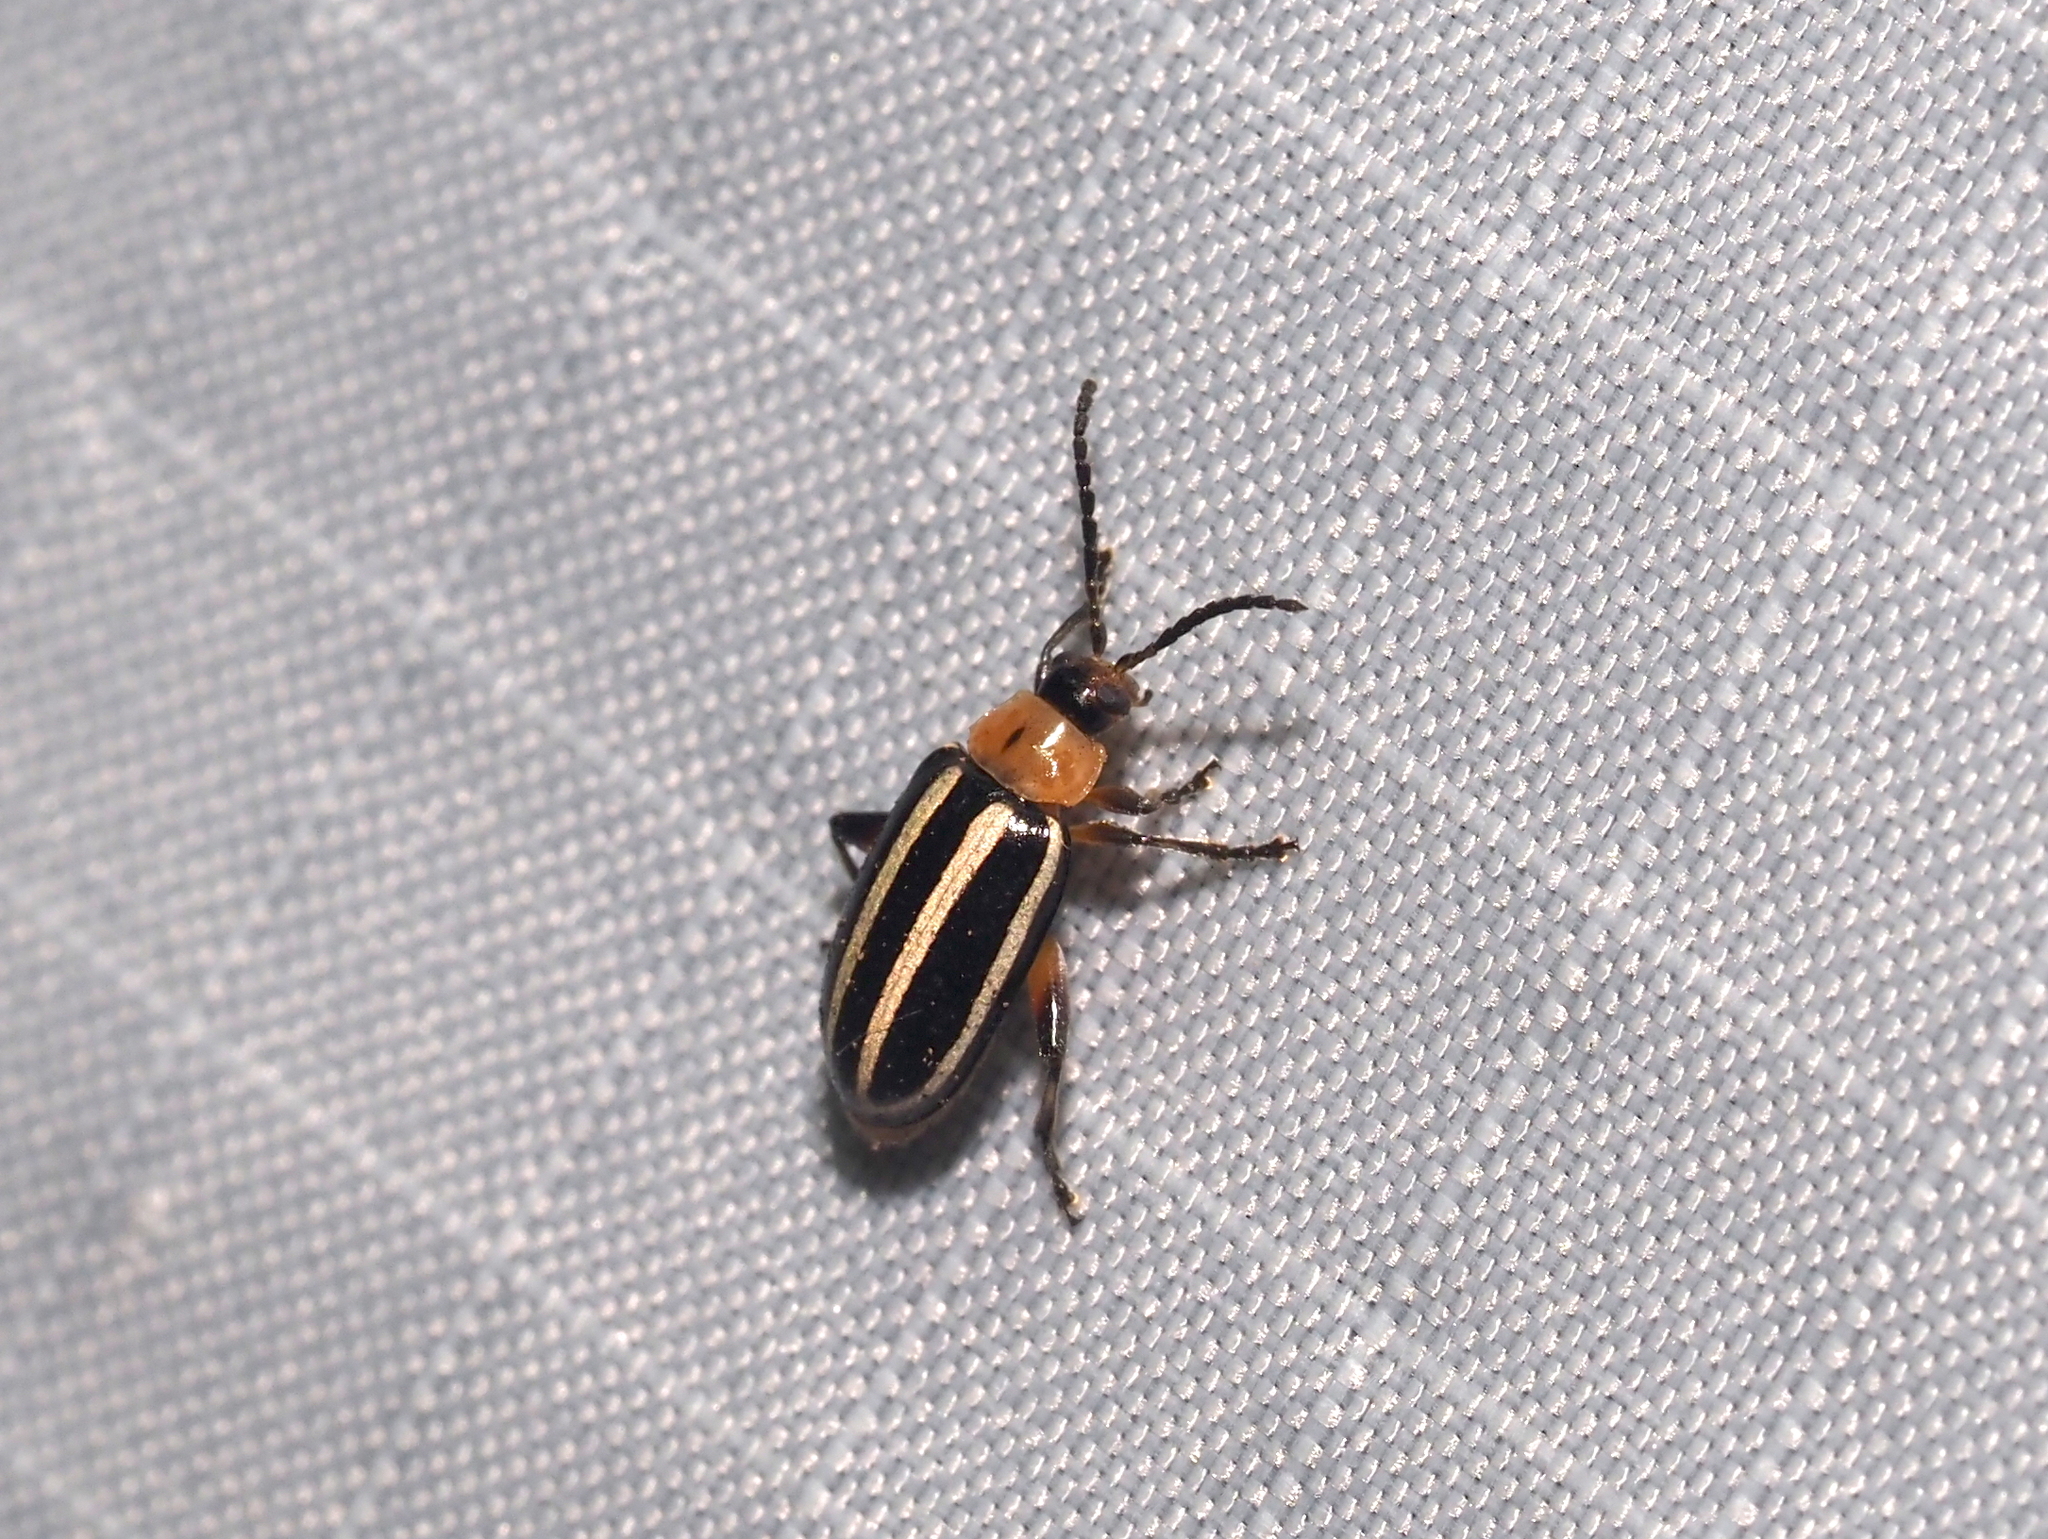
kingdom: Animalia
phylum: Arthropoda
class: Insecta
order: Coleoptera
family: Chrysomelidae
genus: Disonycha
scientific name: Disonycha glabrata
